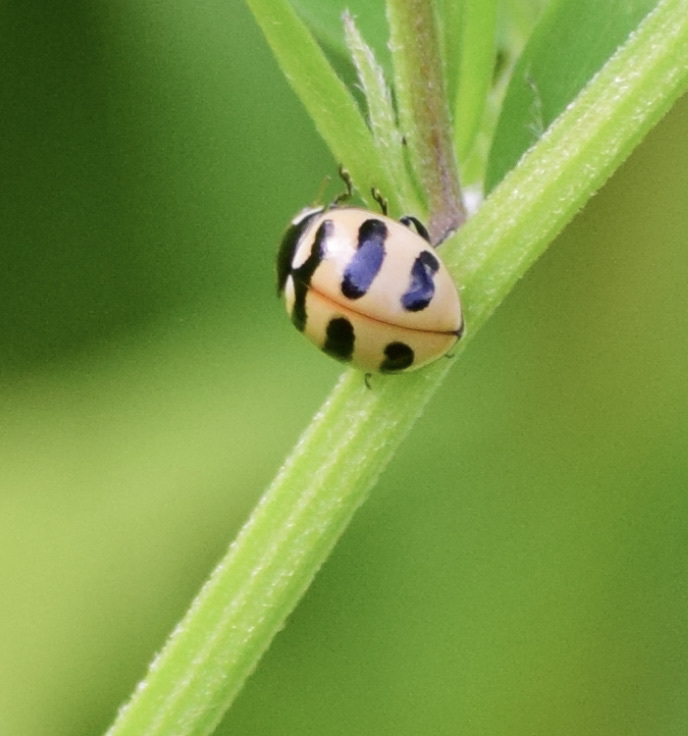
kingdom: Animalia
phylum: Arthropoda
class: Insecta
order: Coleoptera
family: Coccinellidae
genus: Coccinella
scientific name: Coccinella trifasciata
